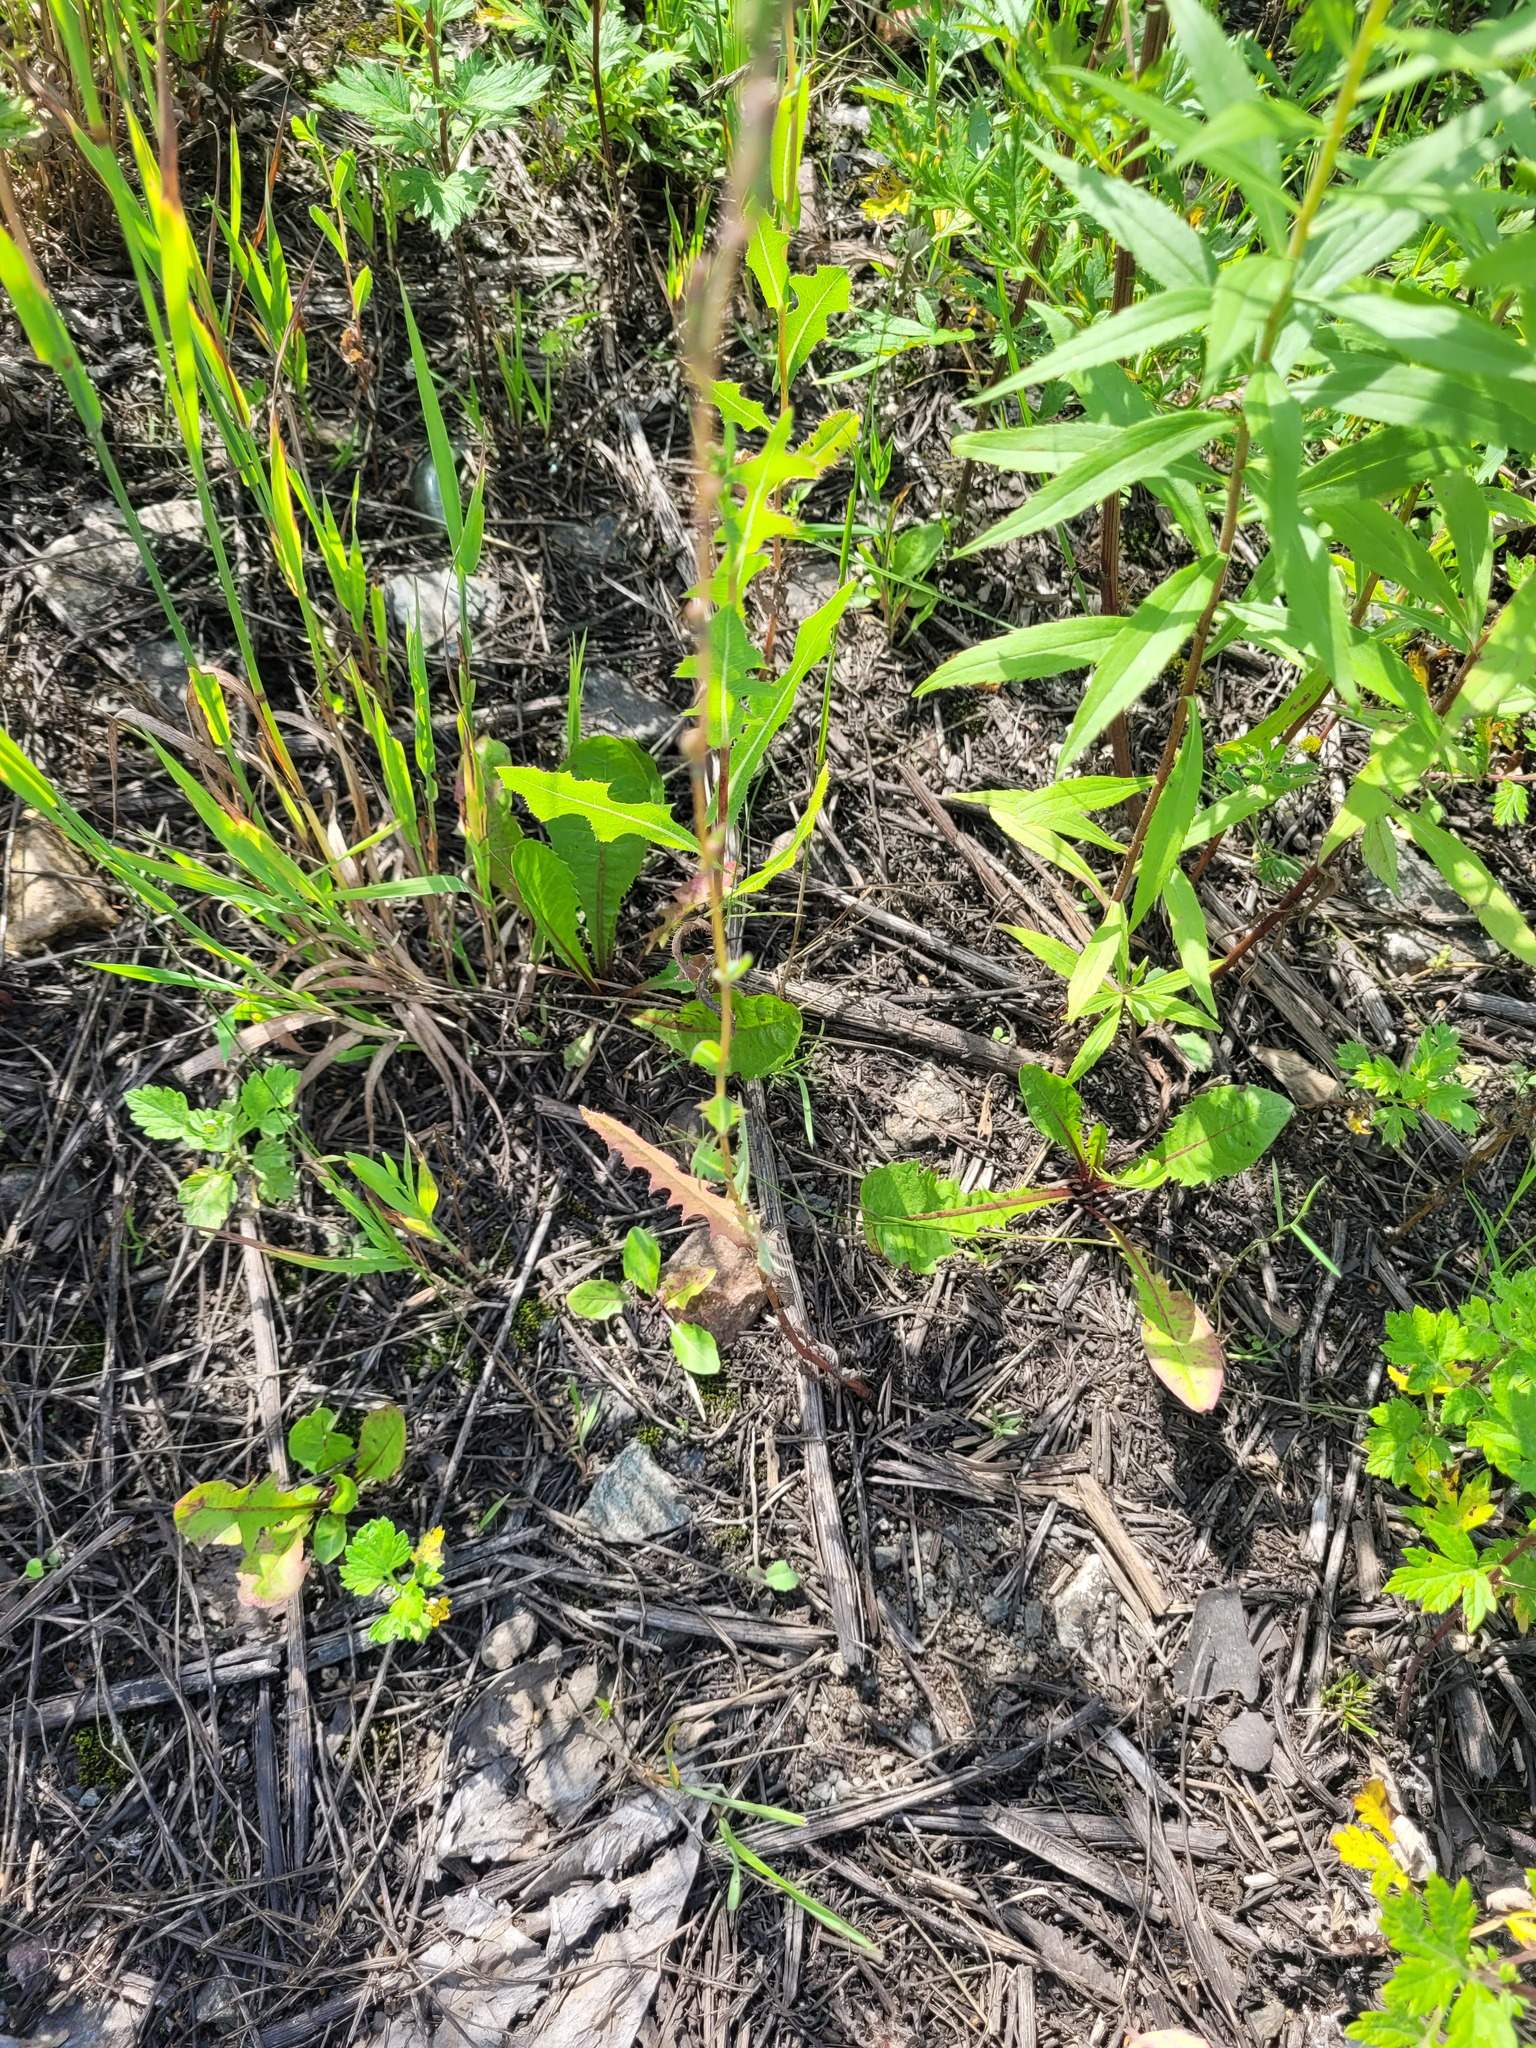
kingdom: Plantae
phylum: Tracheophyta
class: Magnoliopsida
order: Asterales
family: Asteraceae
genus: Lactuca
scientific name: Lactuca serriola
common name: Prickly lettuce
